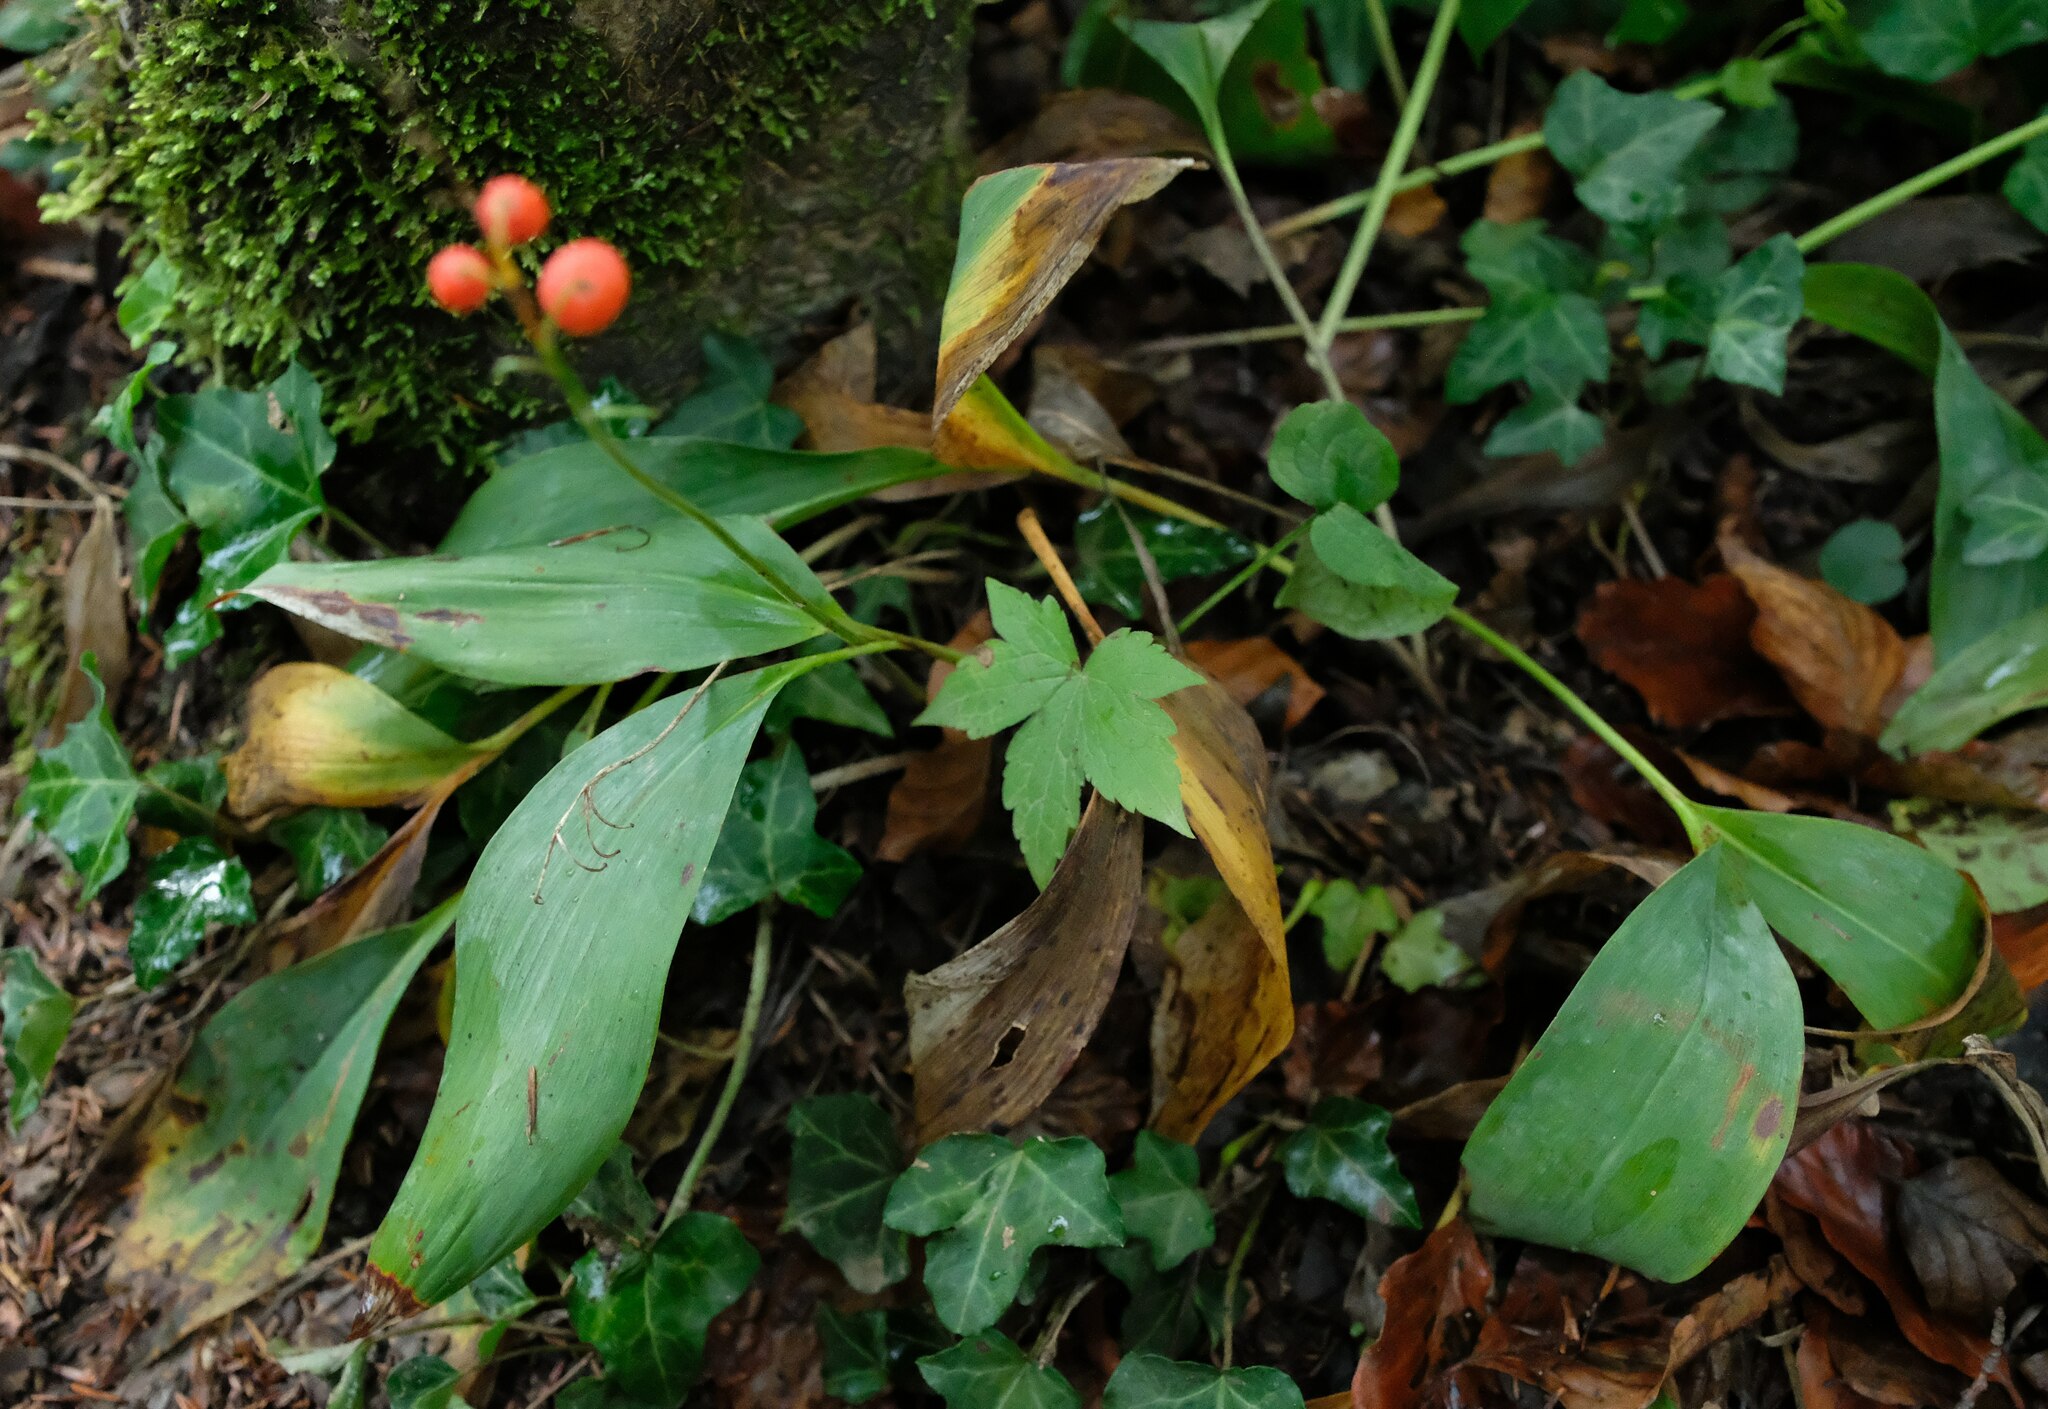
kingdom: Plantae
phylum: Tracheophyta
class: Liliopsida
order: Asparagales
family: Asparagaceae
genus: Convallaria
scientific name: Convallaria majalis
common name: Lily-of-the-valley
